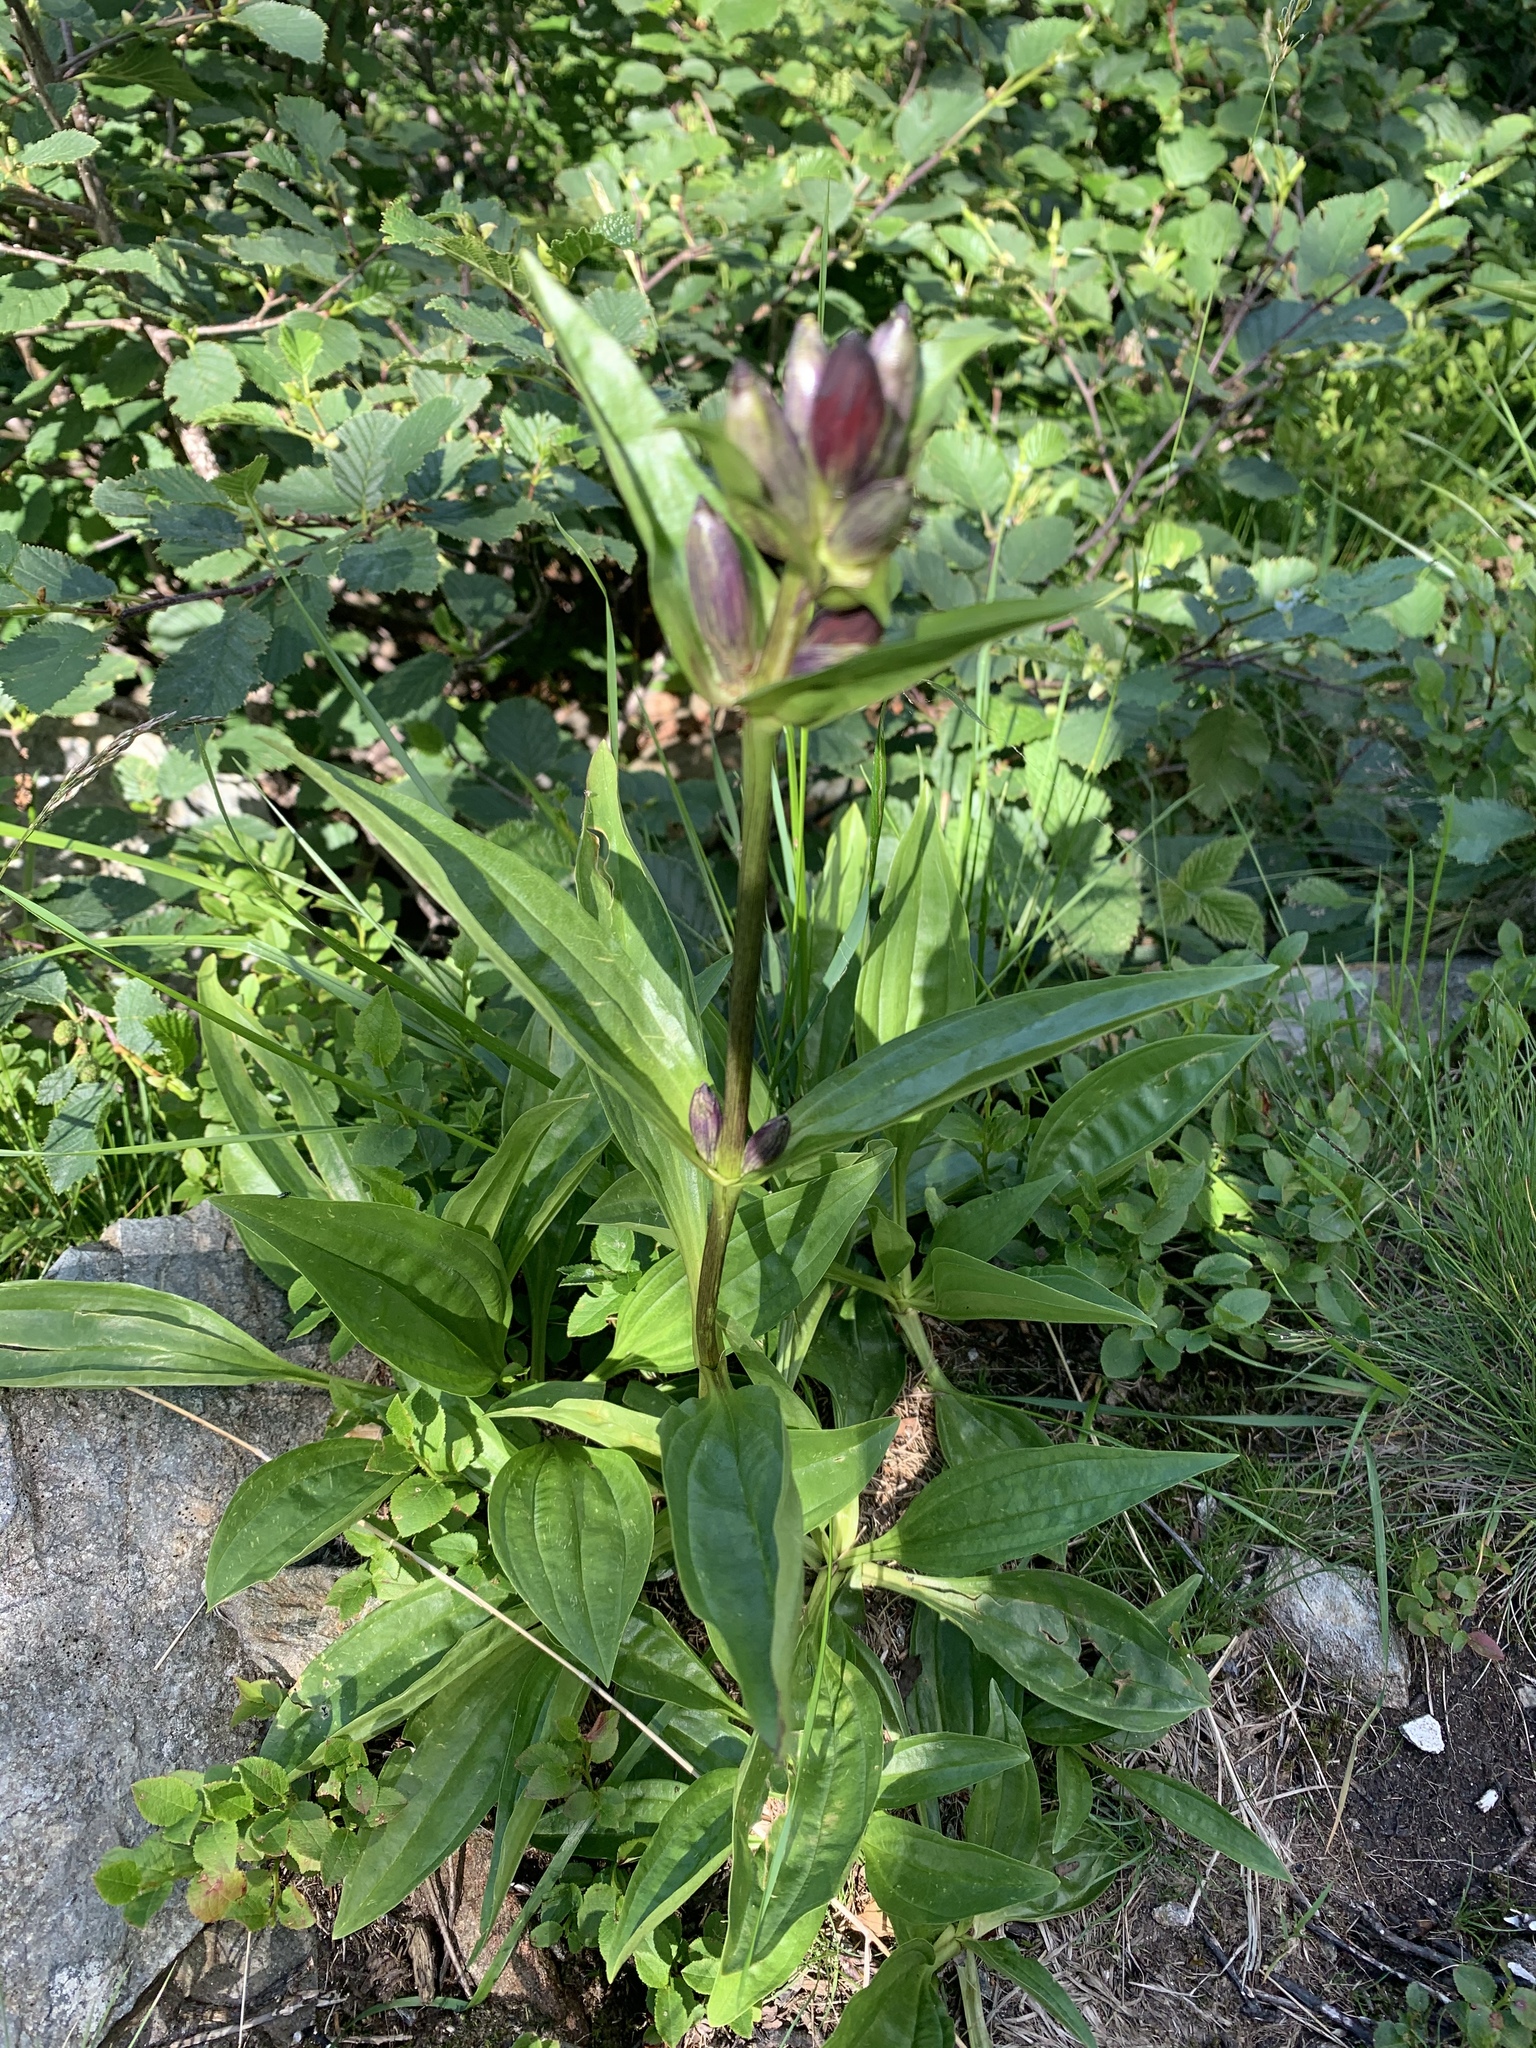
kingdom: Plantae
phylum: Tracheophyta
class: Magnoliopsida
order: Gentianales
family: Gentianaceae
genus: Gentiana
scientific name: Gentiana purpurea
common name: Purple gentian
